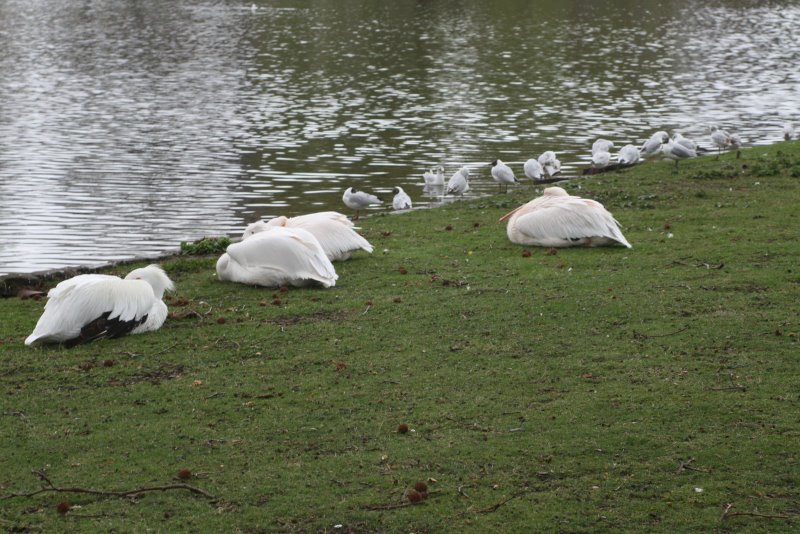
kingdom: Animalia
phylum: Chordata
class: Aves
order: Charadriiformes
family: Laridae
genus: Chroicocephalus
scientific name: Chroicocephalus ridibundus
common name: Black-headed gull
